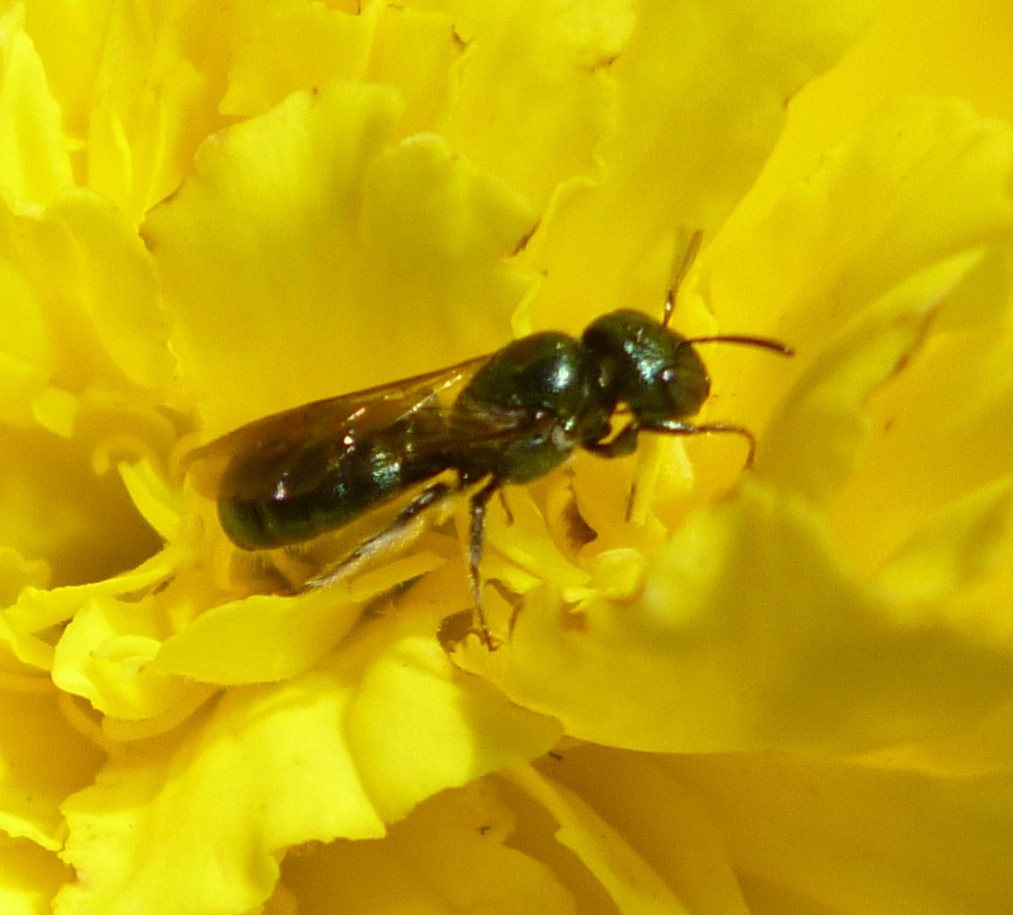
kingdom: Animalia
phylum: Arthropoda
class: Insecta
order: Hymenoptera
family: Apidae
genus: Zadontomerus
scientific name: Zadontomerus
